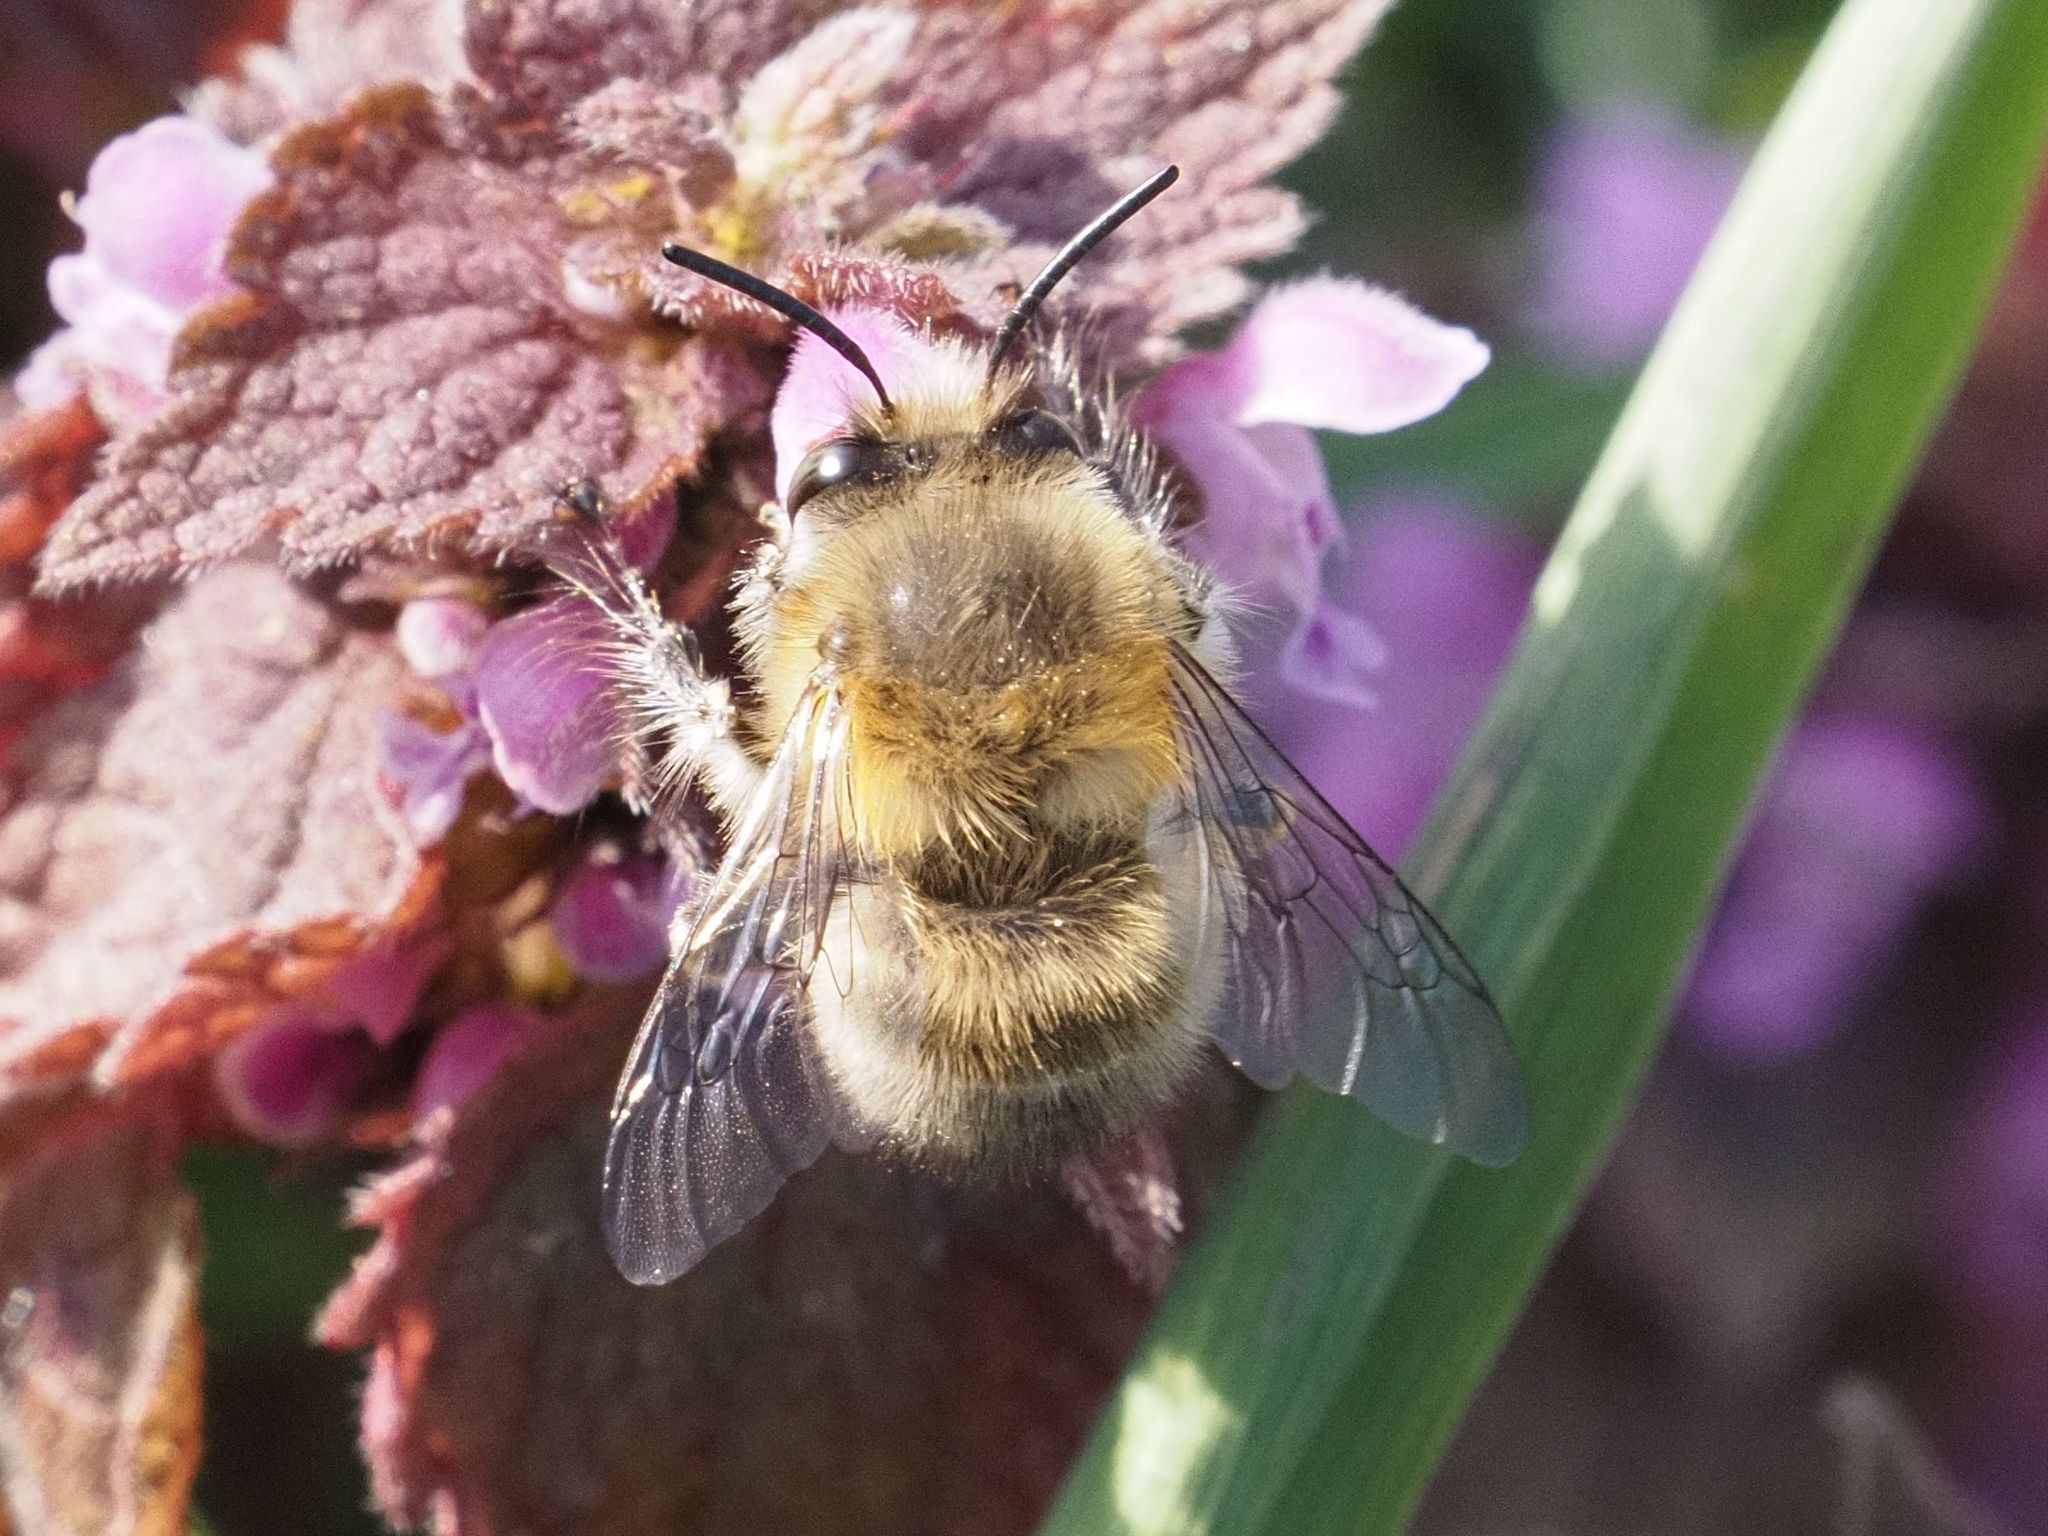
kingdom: Animalia
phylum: Arthropoda
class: Insecta
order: Hymenoptera
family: Apidae
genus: Anthophora
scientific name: Anthophora plumipes
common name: Hairy-footed flower bee
